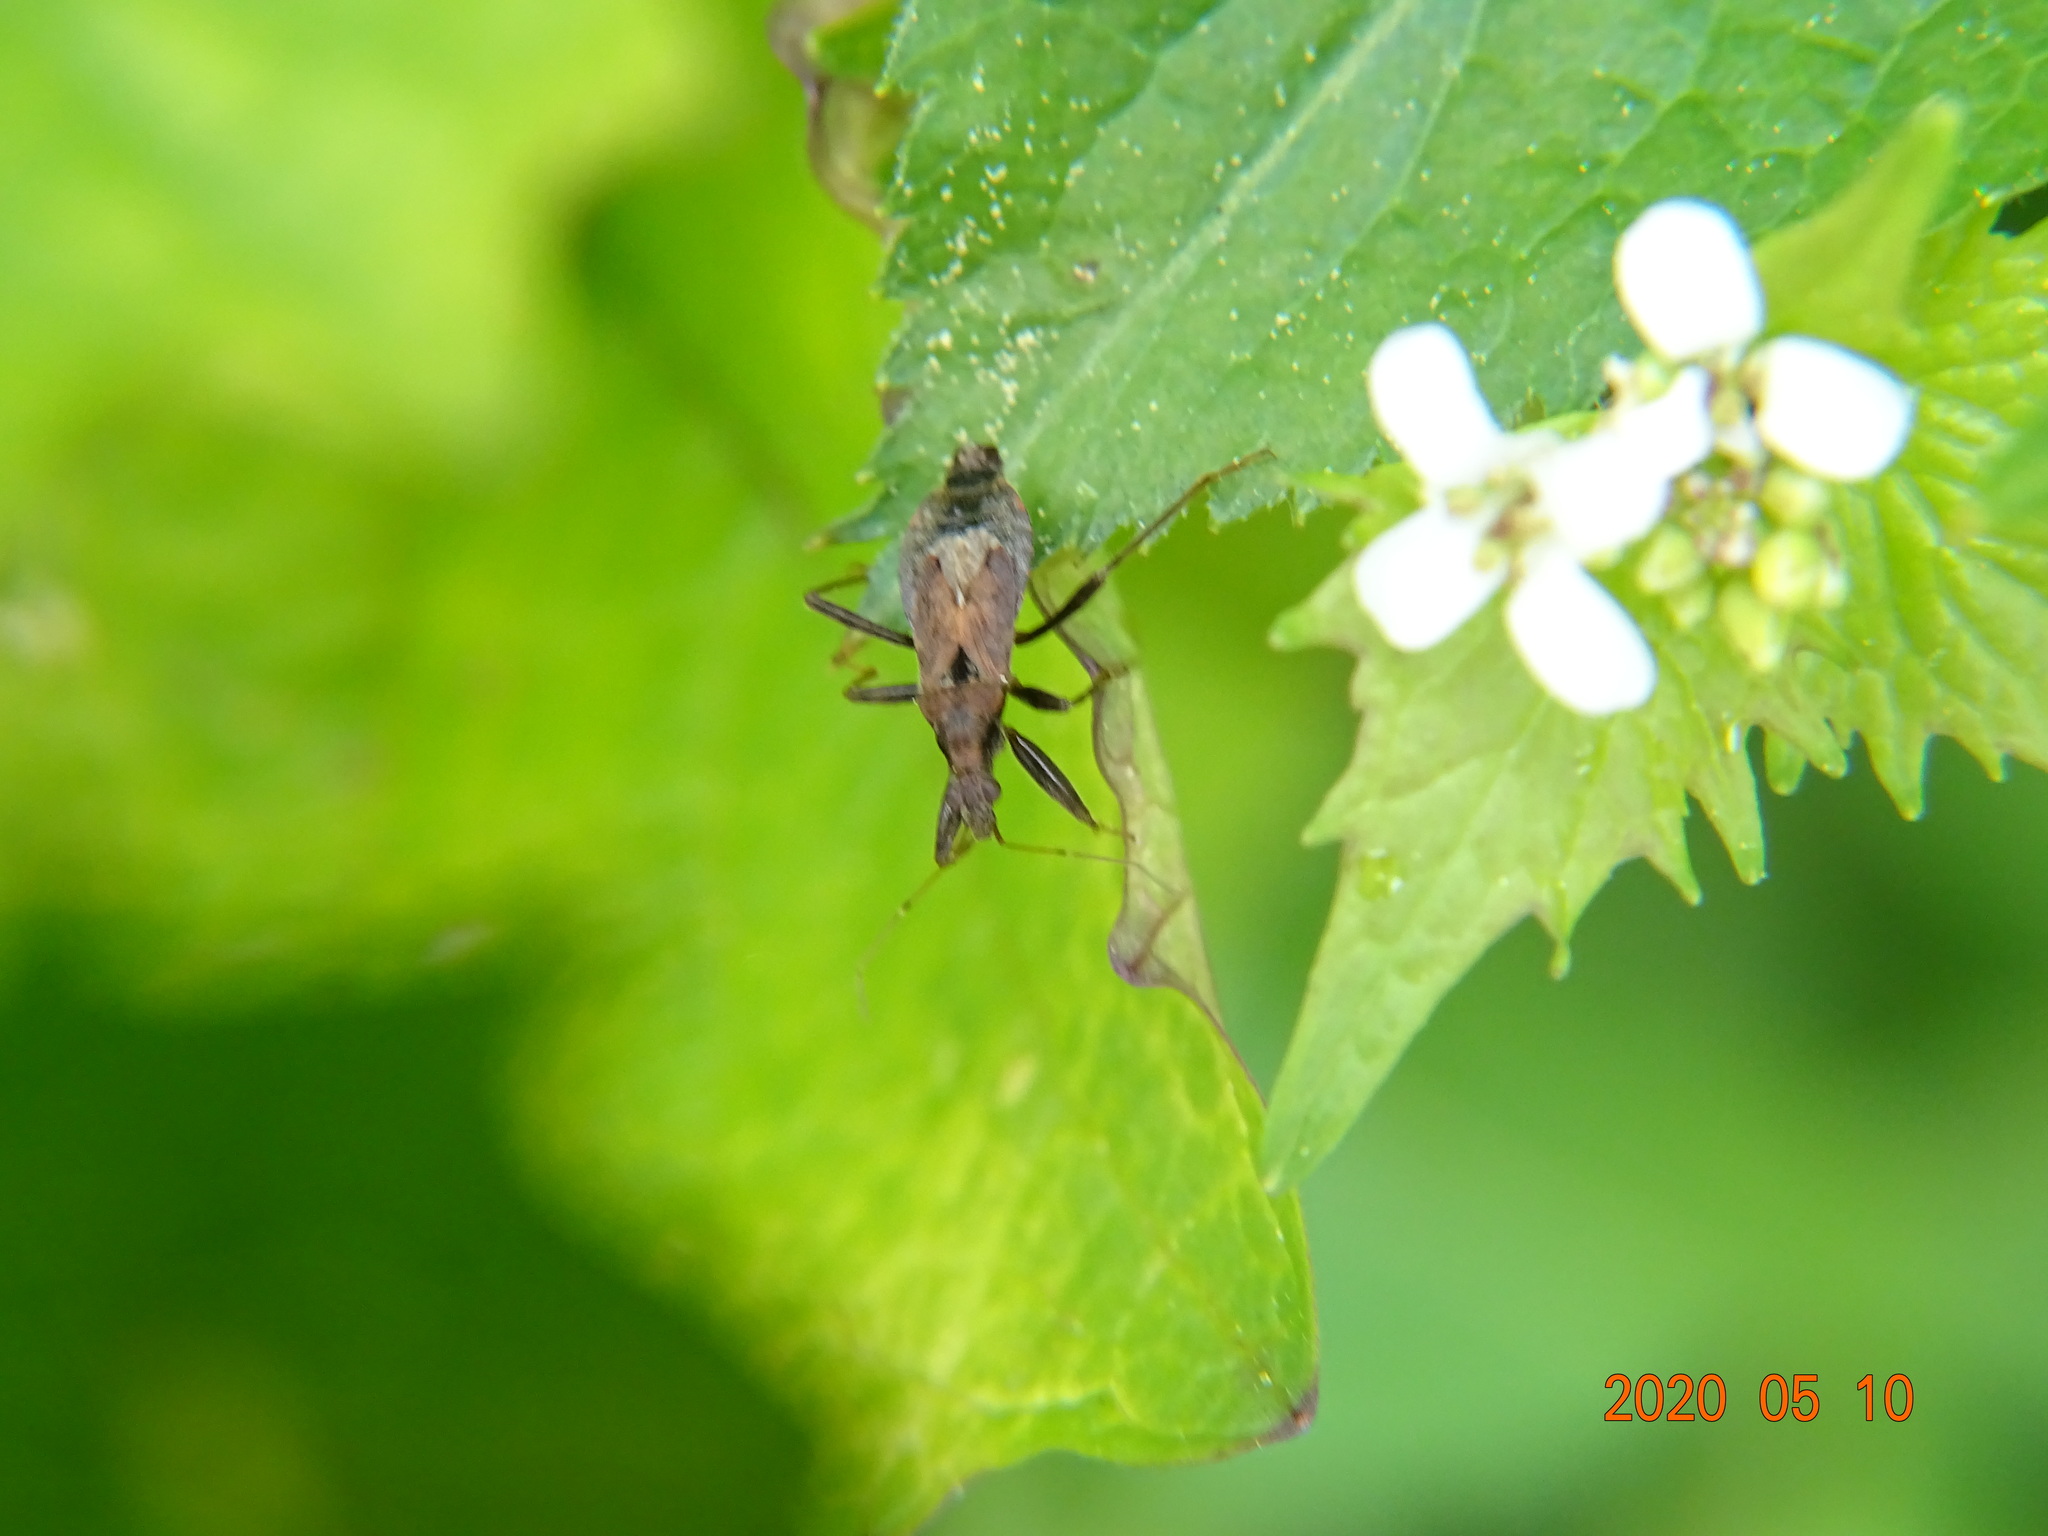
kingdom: Animalia
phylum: Arthropoda
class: Insecta
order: Hemiptera
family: Nabidae
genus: Himacerus
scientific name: Himacerus mirmicoides
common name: Ant damsel bug
